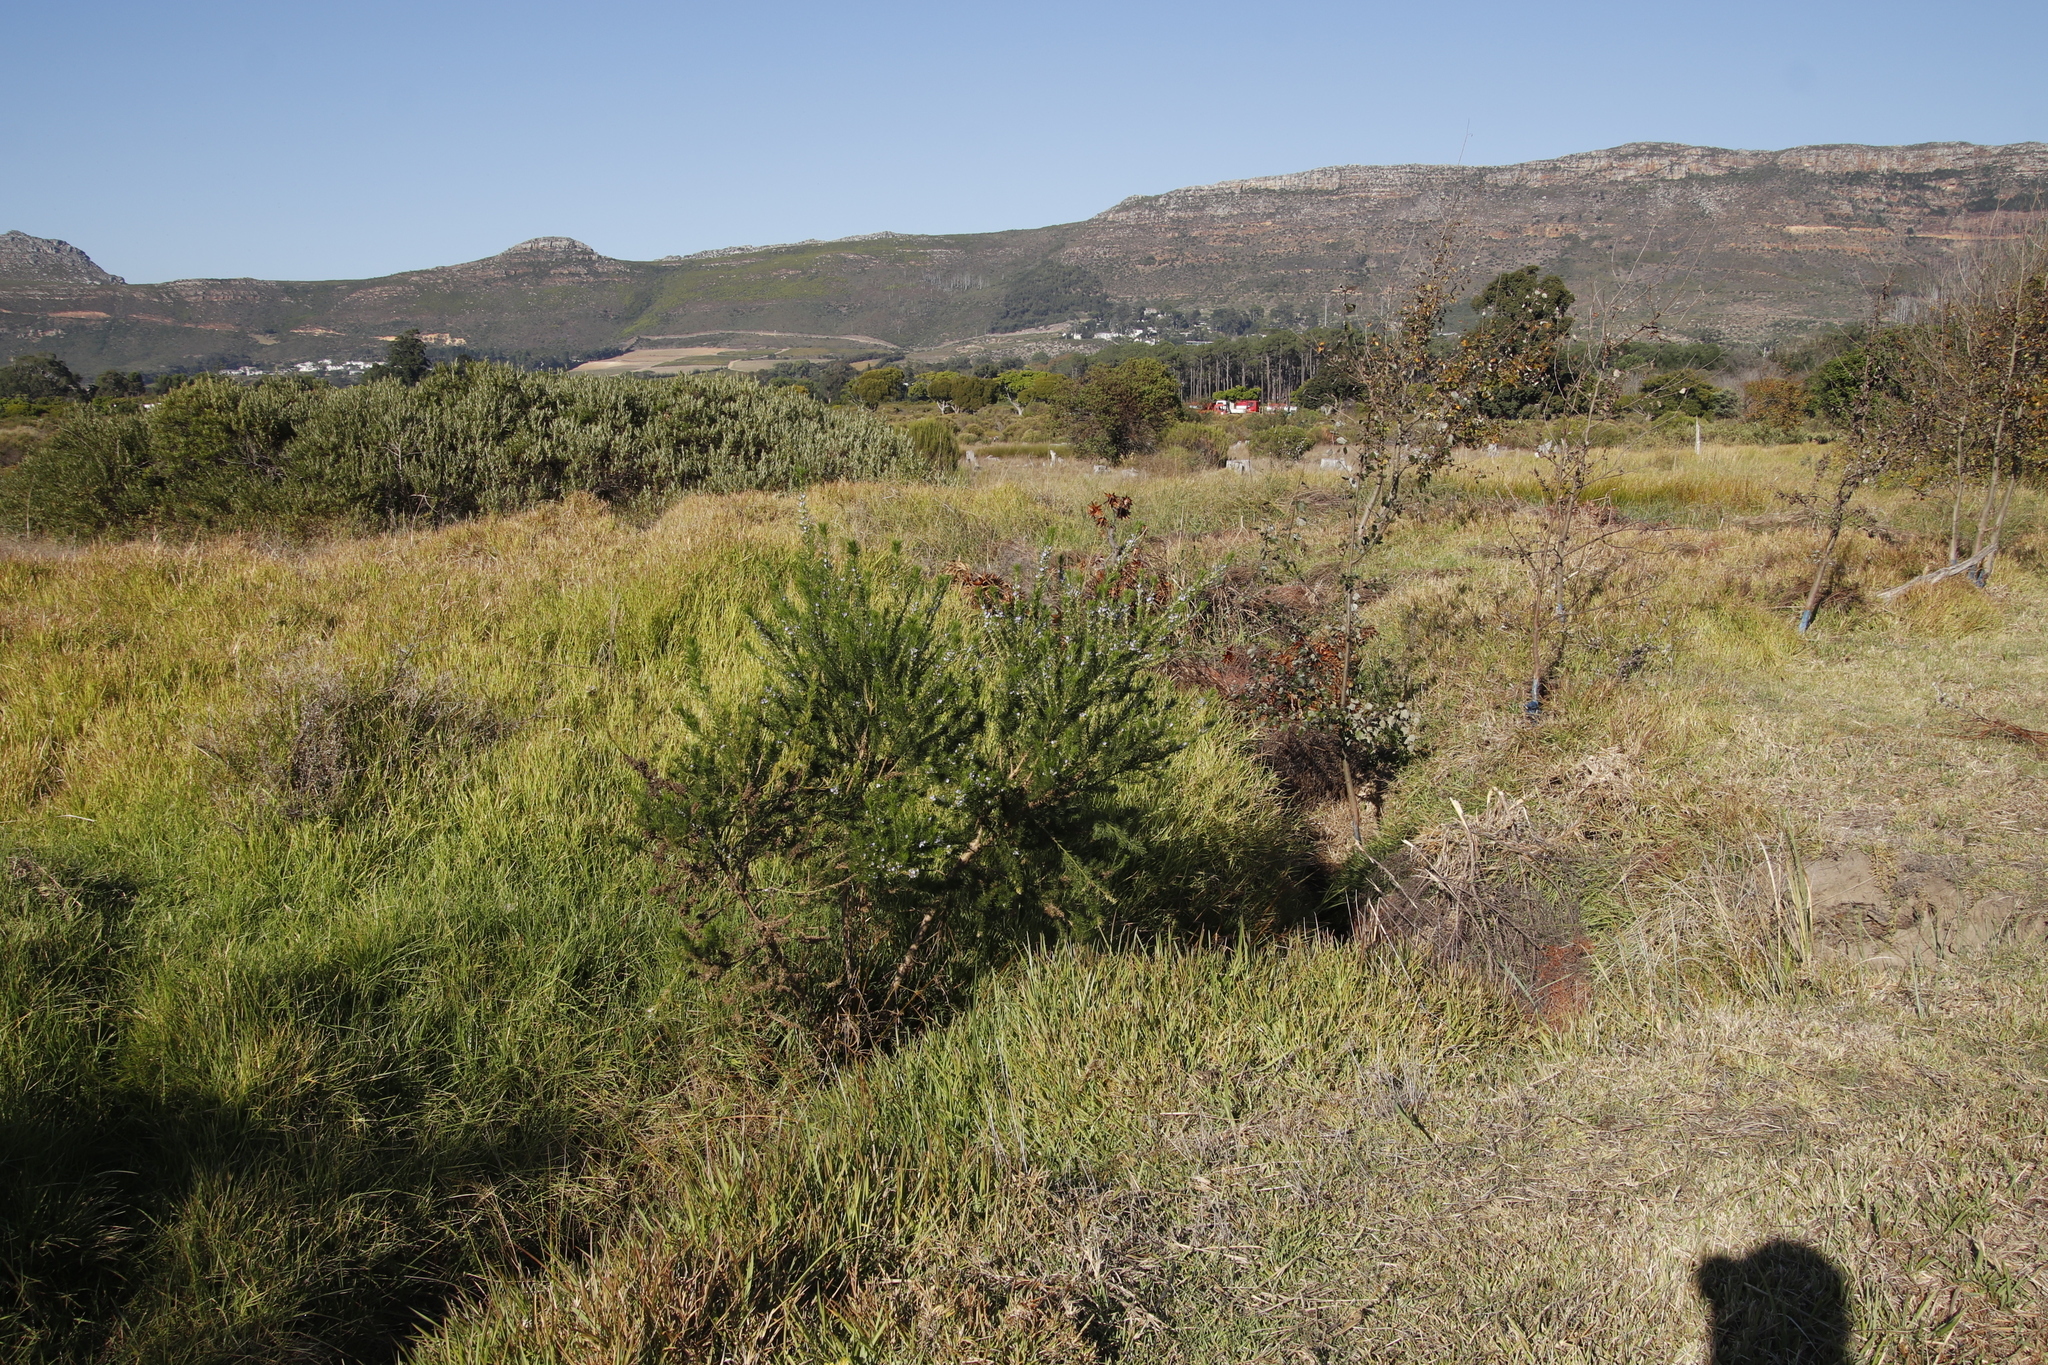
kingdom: Plantae
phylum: Tracheophyta
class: Magnoliopsida
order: Fabales
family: Fabaceae
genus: Psoralea
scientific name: Psoralea pinnata
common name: African scurfpea
